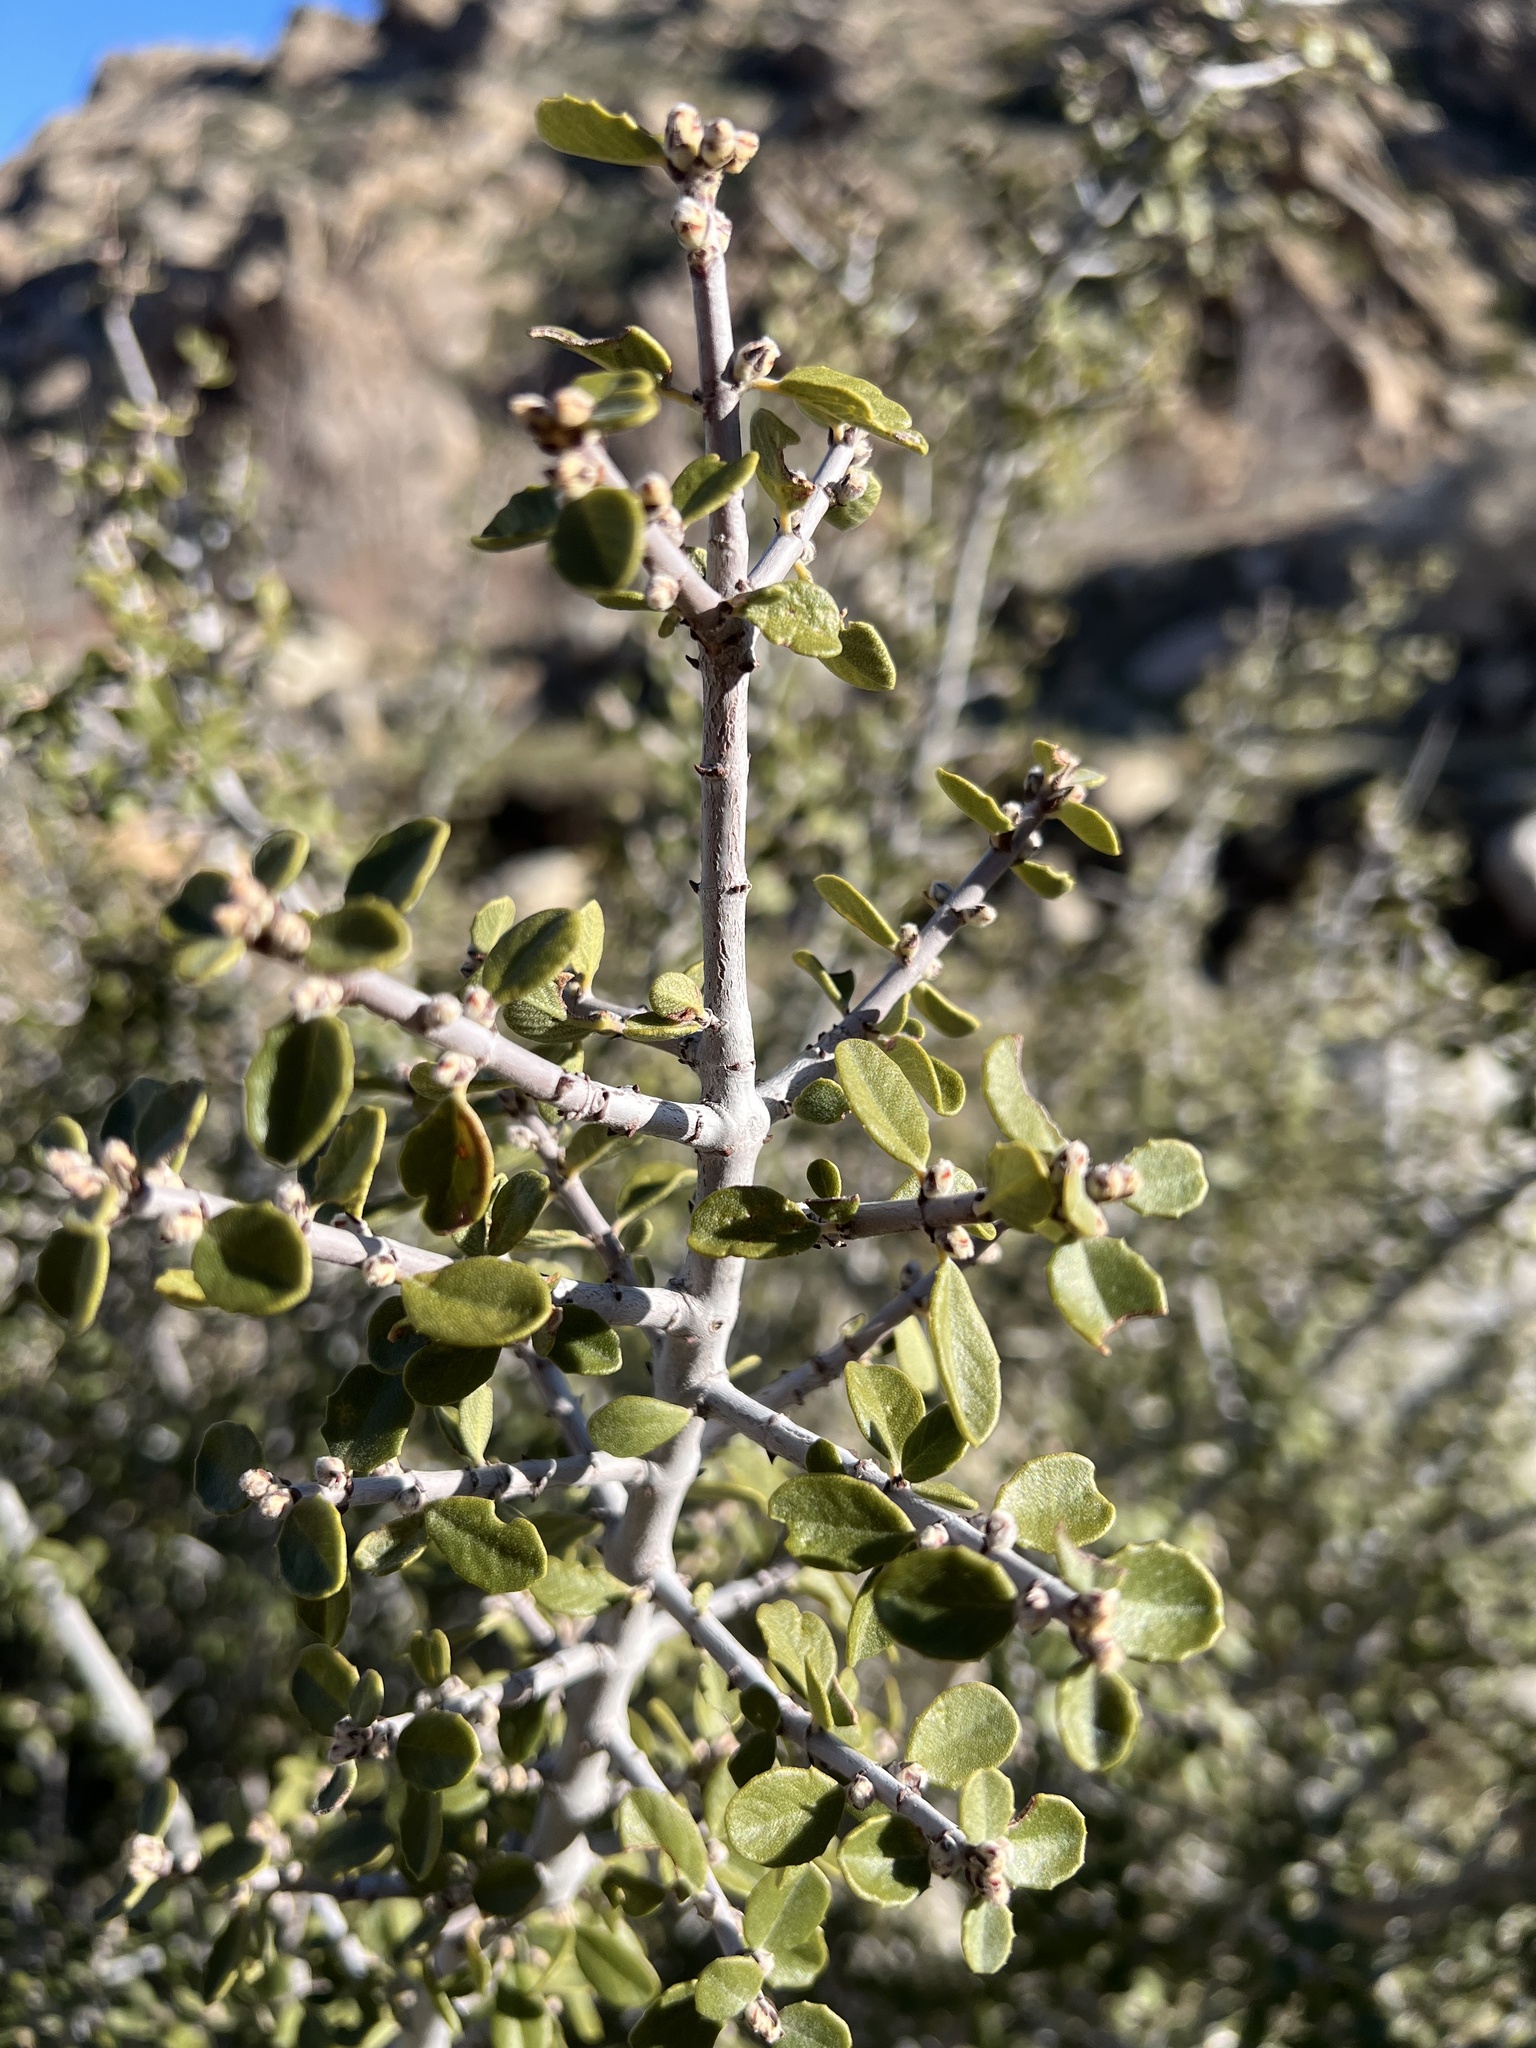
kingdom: Plantae
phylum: Tracheophyta
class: Magnoliopsida
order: Rosales
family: Rhamnaceae
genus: Ceanothus
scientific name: Ceanothus pauciflorus
